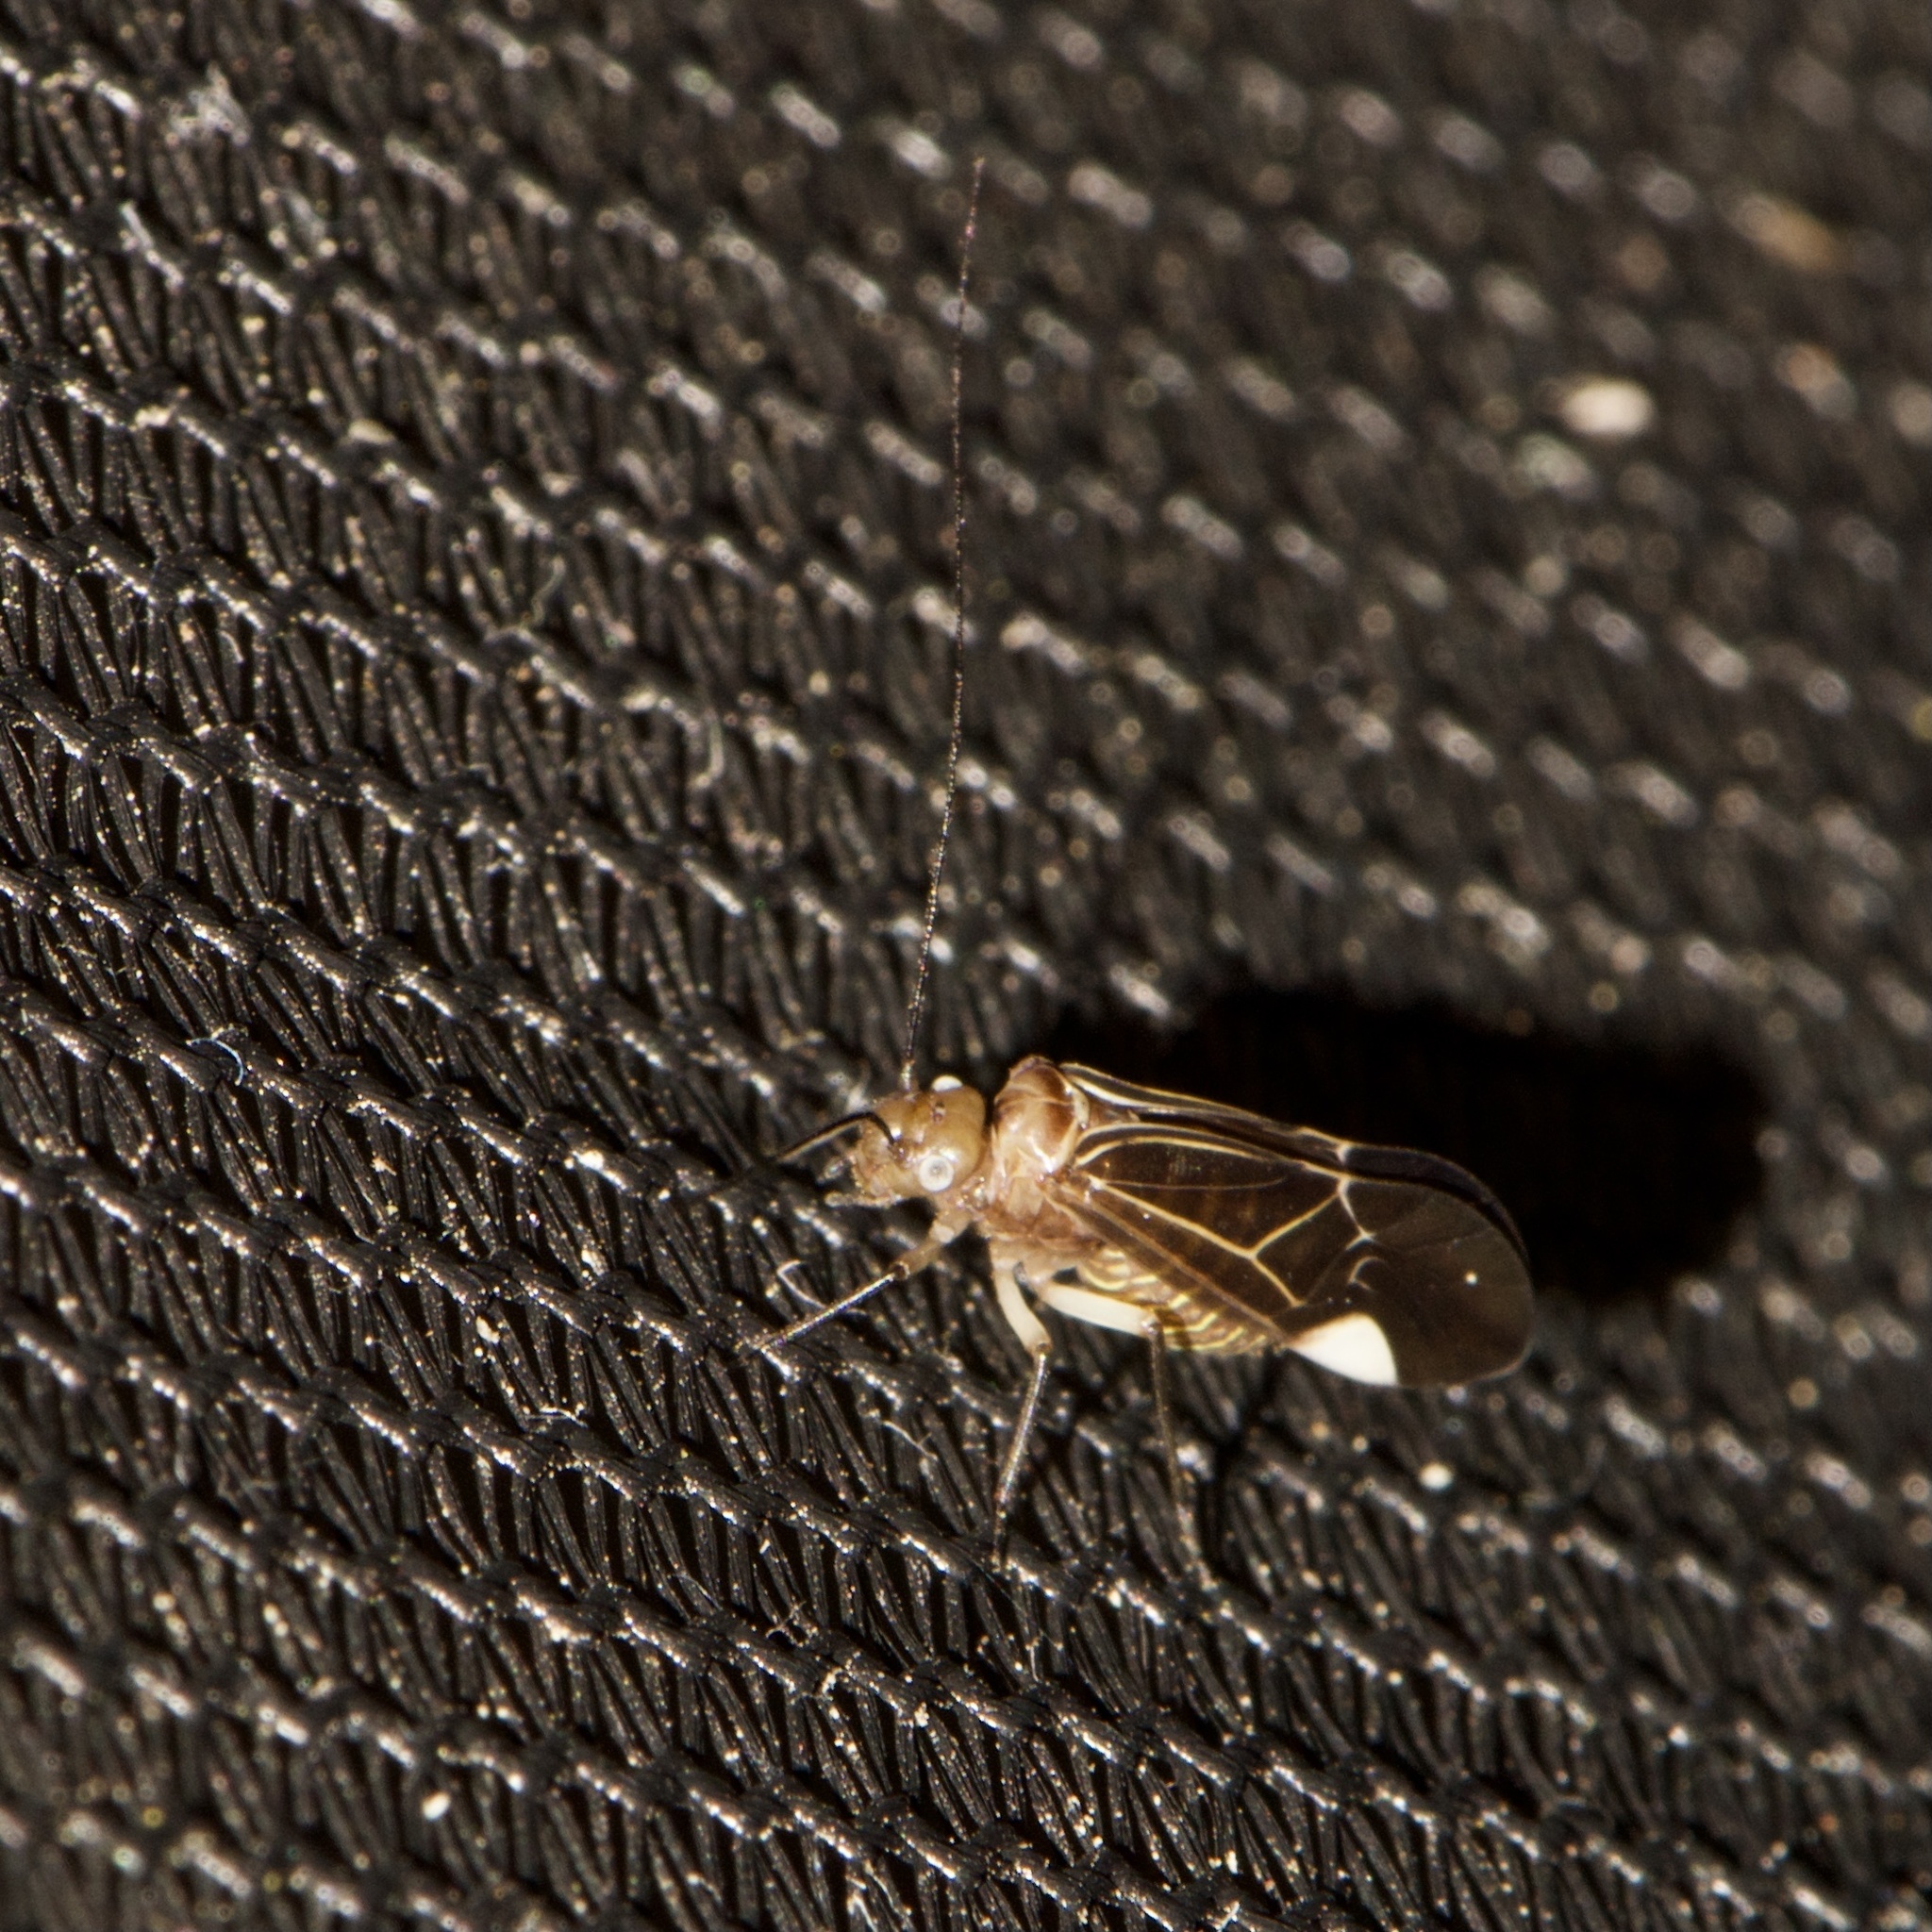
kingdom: Animalia
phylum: Arthropoda
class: Insecta
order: Psocodea
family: Psocidae
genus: Cerastipsocus
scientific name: Cerastipsocus venosus
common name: Tree cattle
